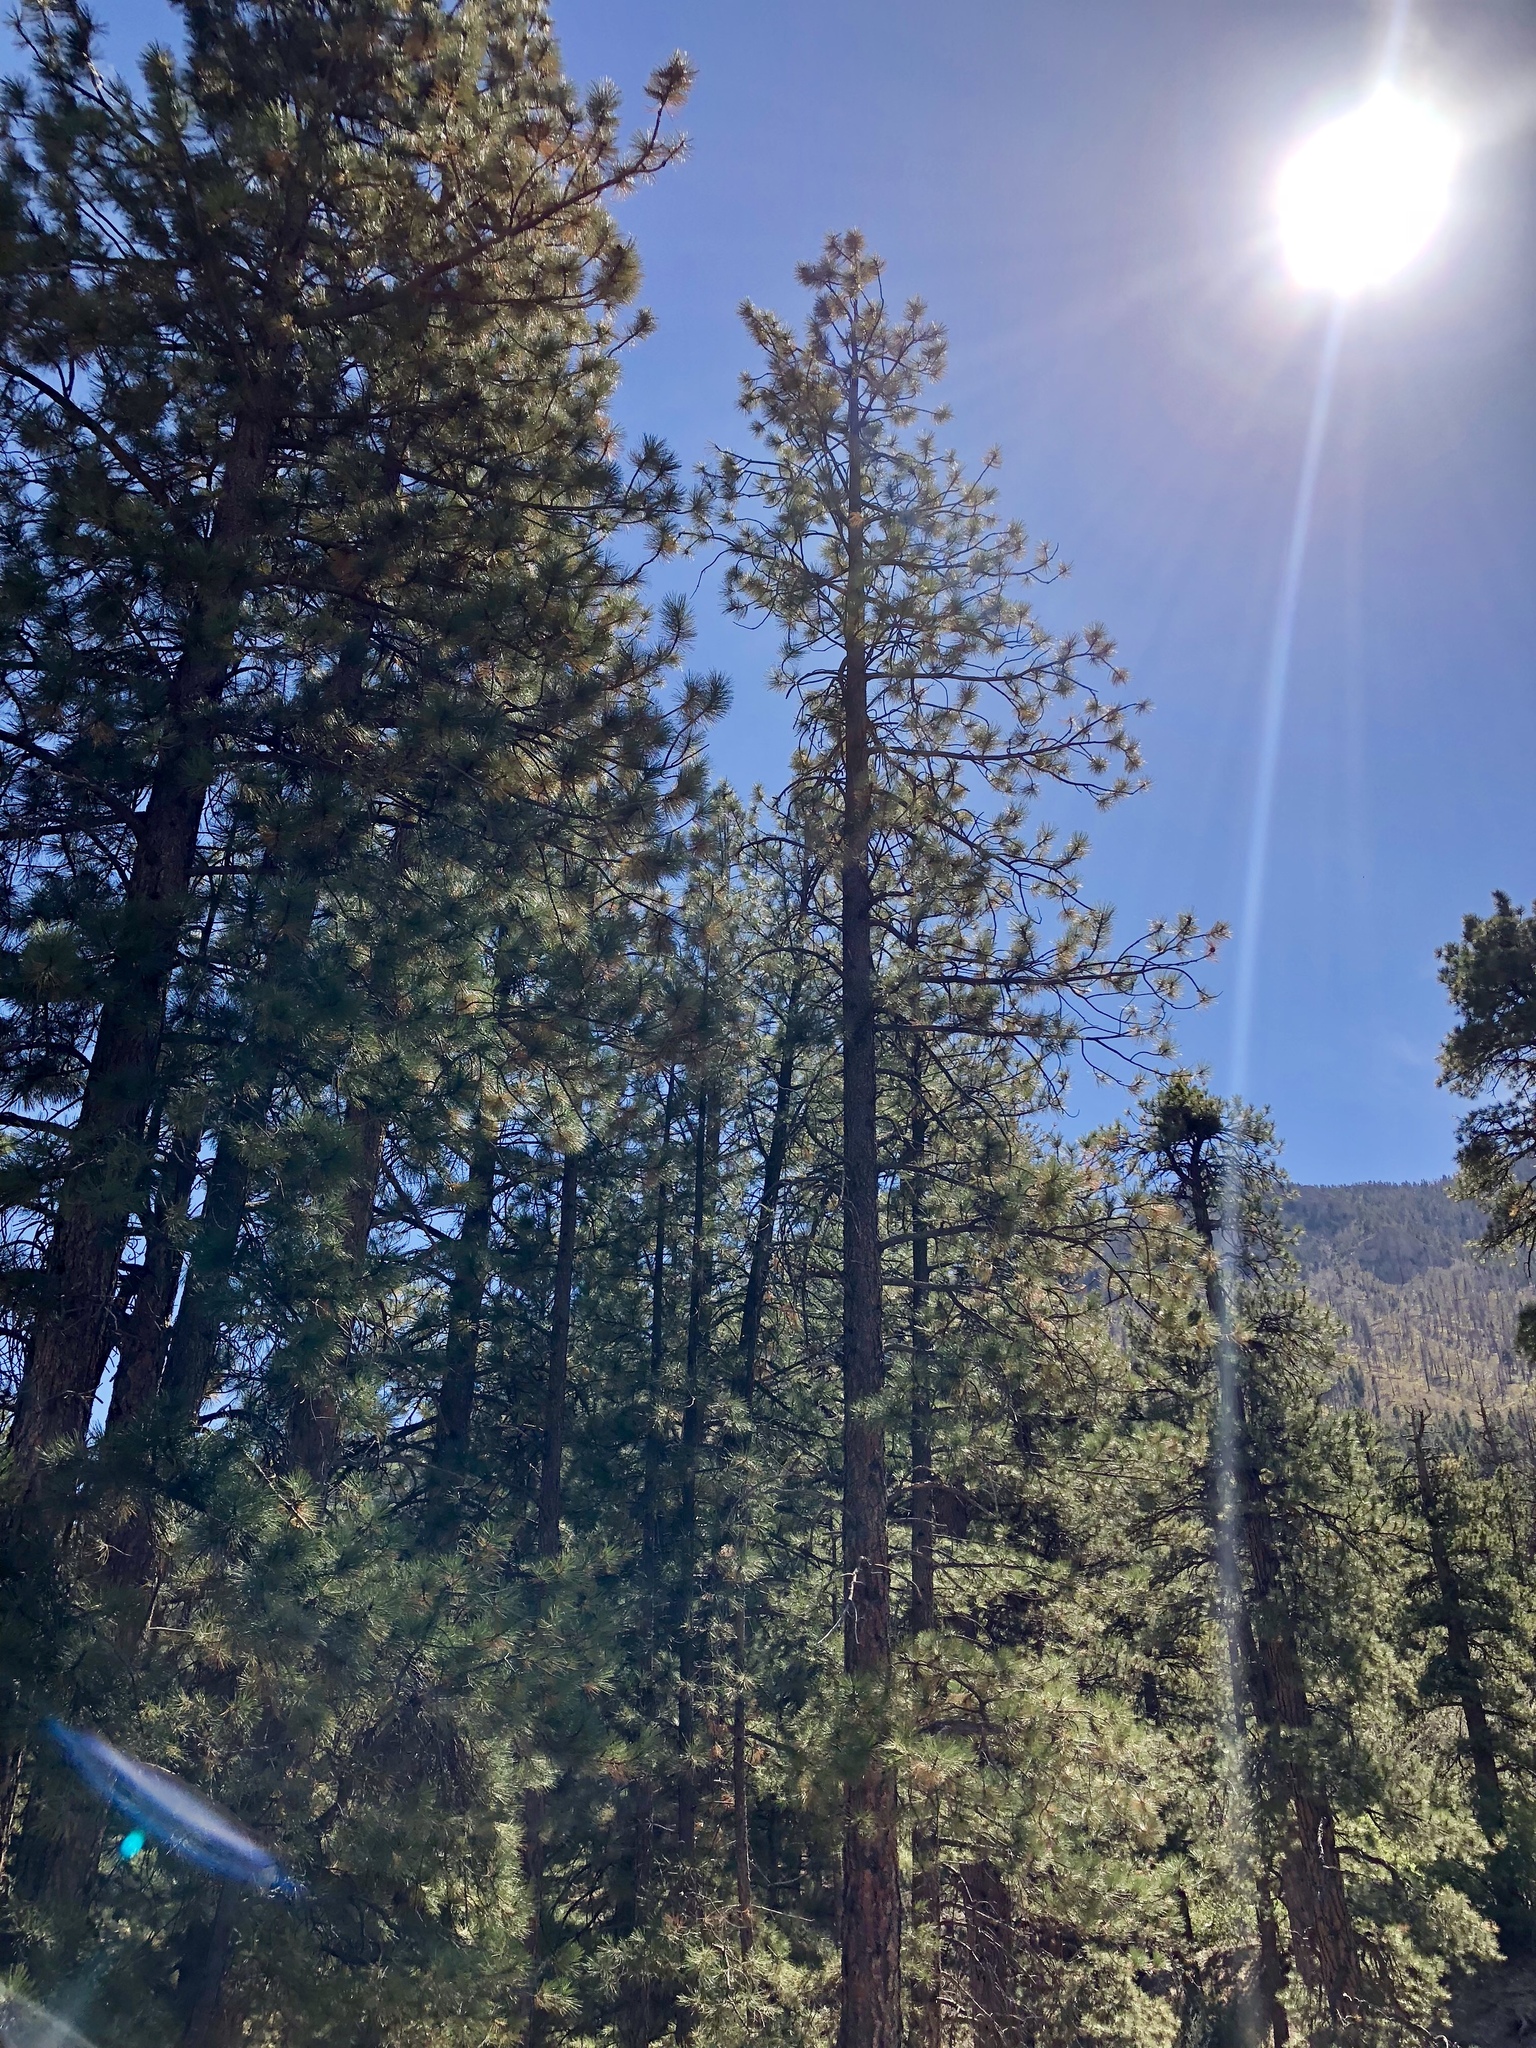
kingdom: Plantae
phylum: Tracheophyta
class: Pinopsida
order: Pinales
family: Pinaceae
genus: Pinus
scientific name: Pinus ponderosa
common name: Western yellow-pine
